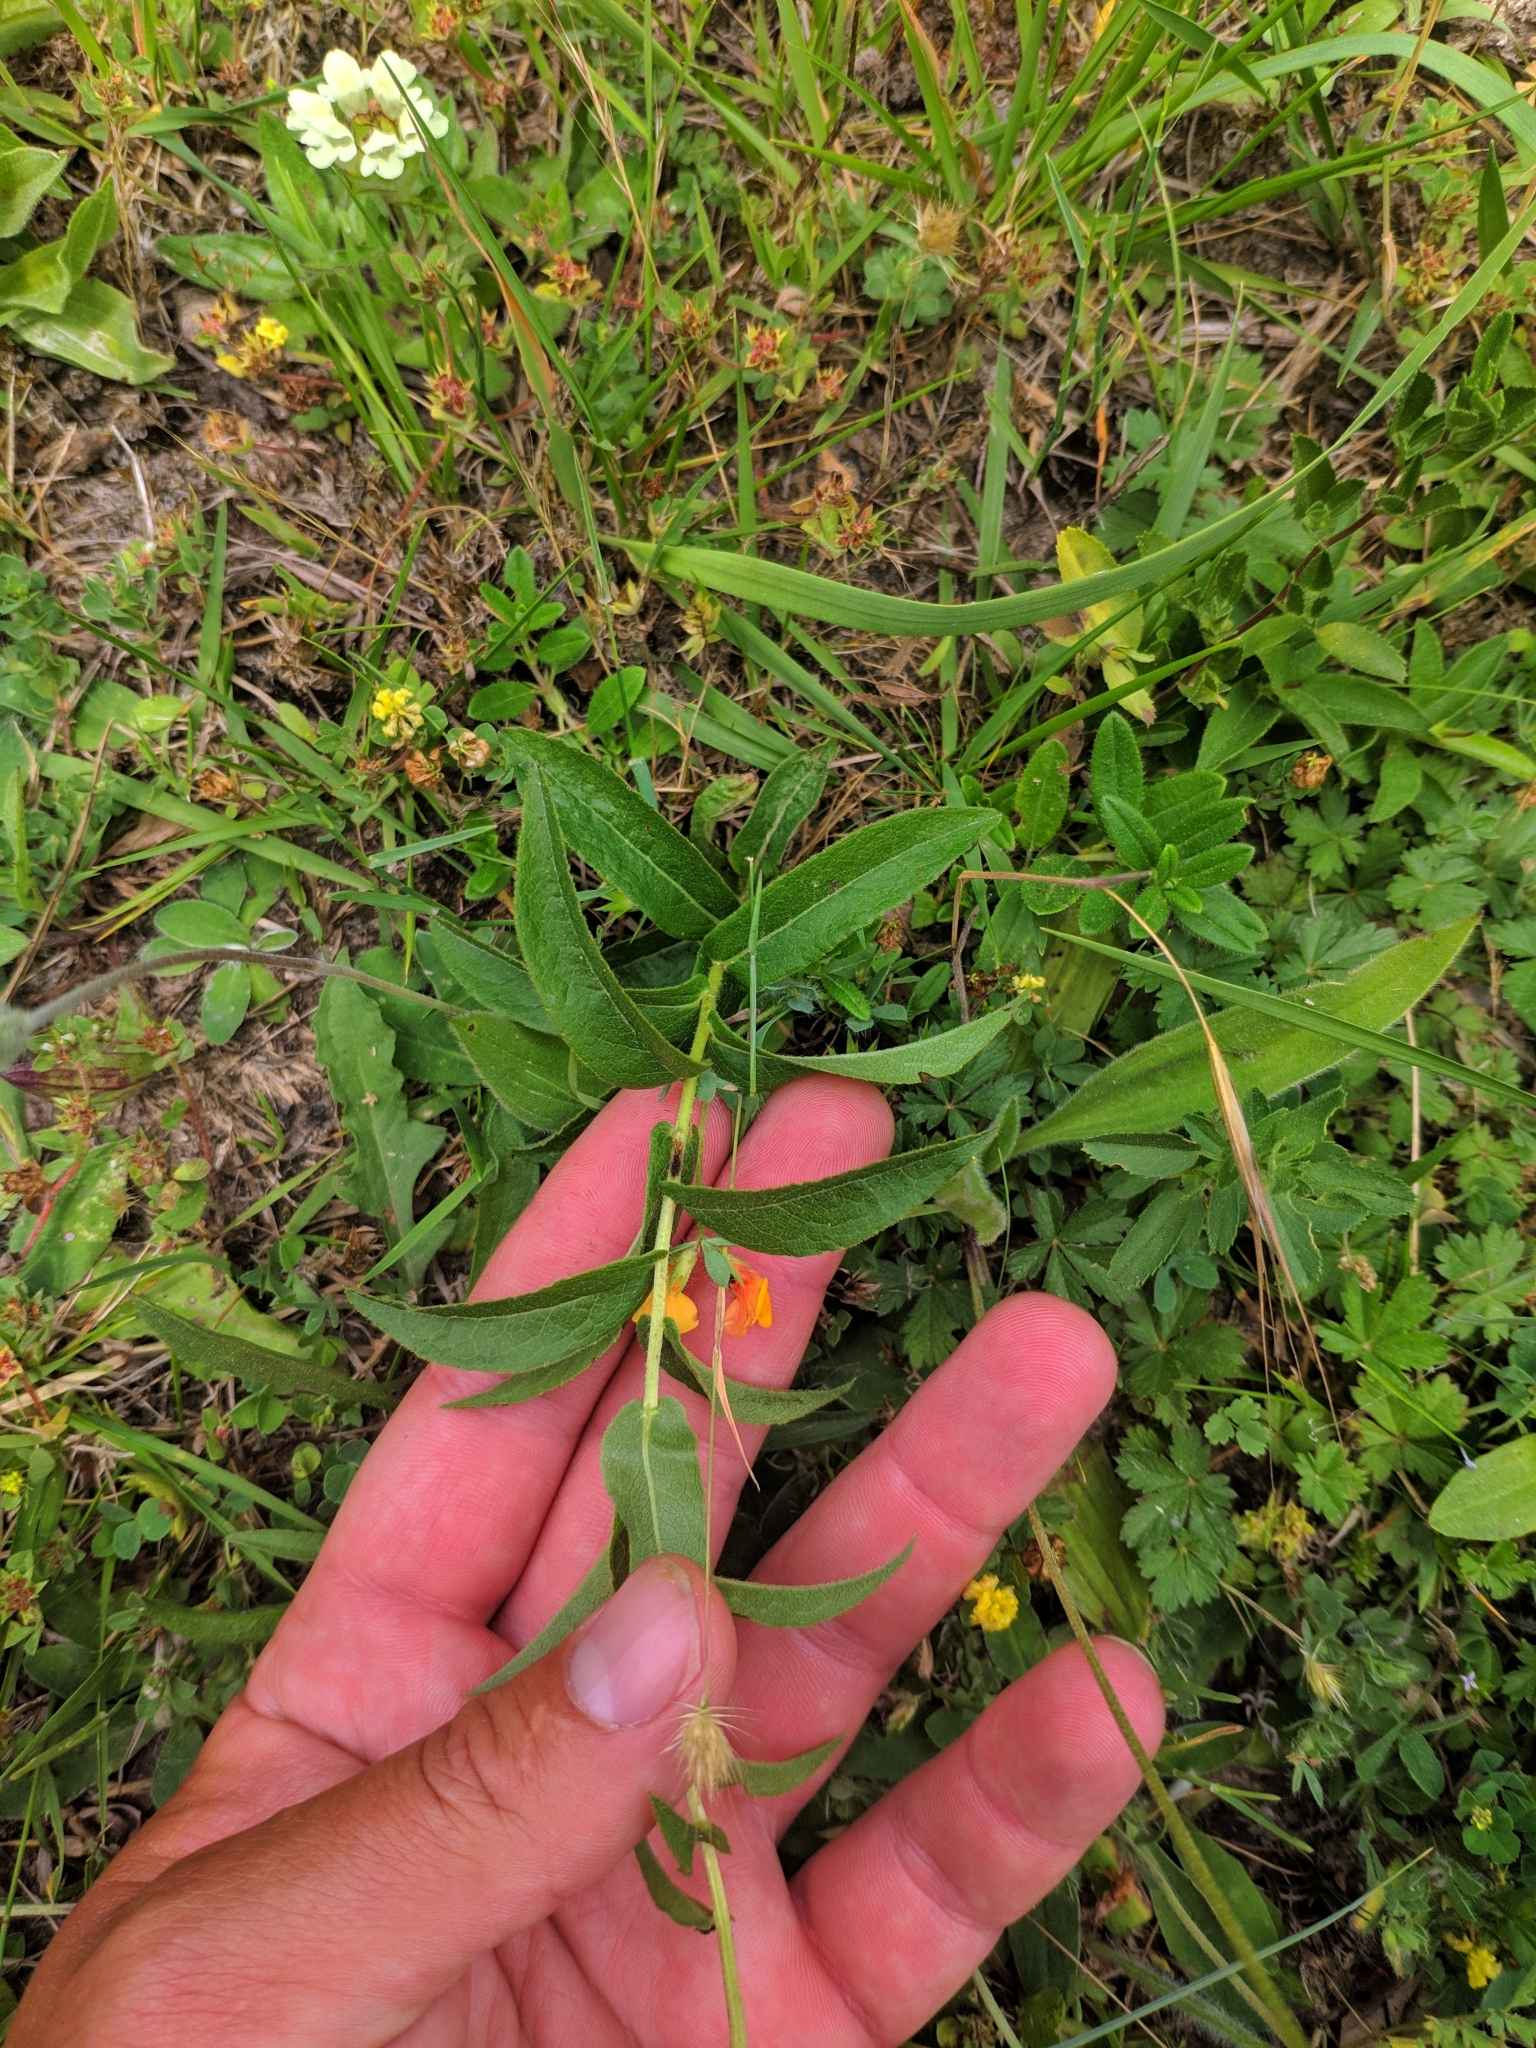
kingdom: Plantae
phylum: Tracheophyta
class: Magnoliopsida
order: Asterales
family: Asteraceae
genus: Pentanema
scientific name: Pentanema salicinum
